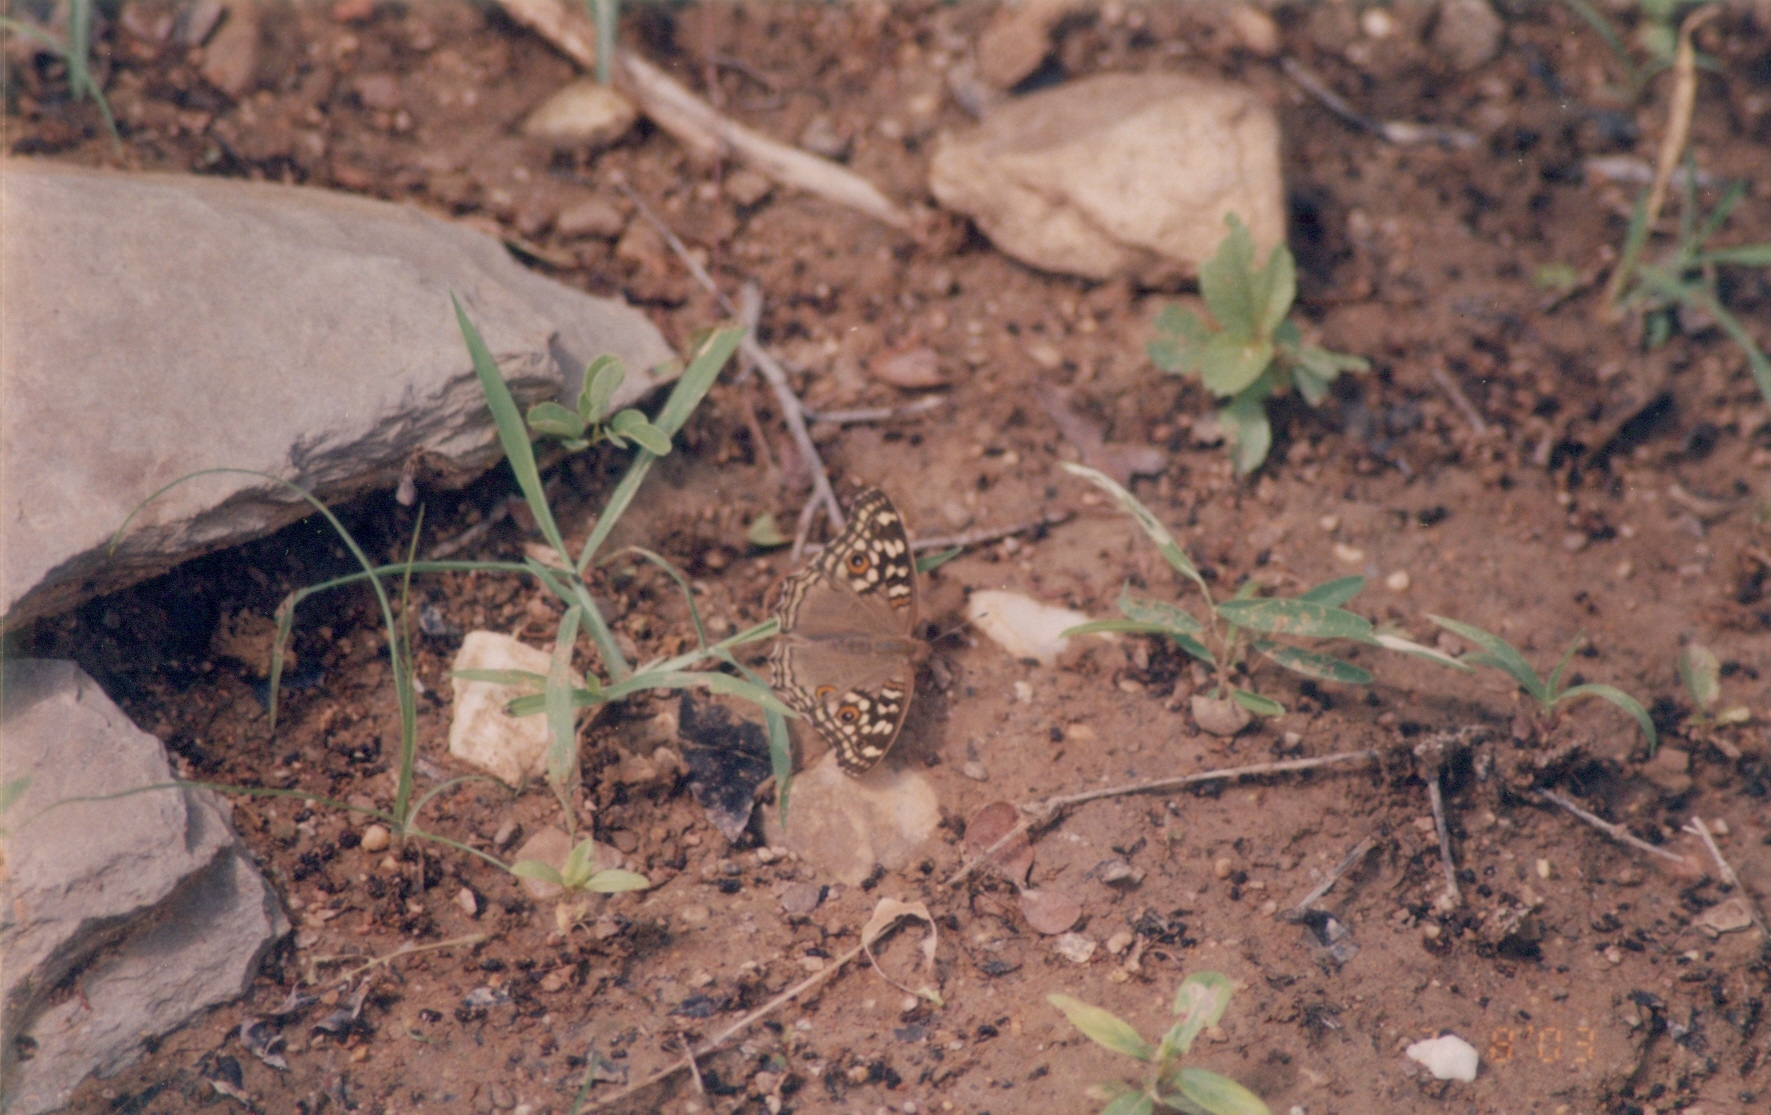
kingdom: Animalia
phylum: Arthropoda
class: Insecta
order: Lepidoptera
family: Nymphalidae
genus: Junonia
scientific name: Junonia lemonias
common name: Lemon pansy
